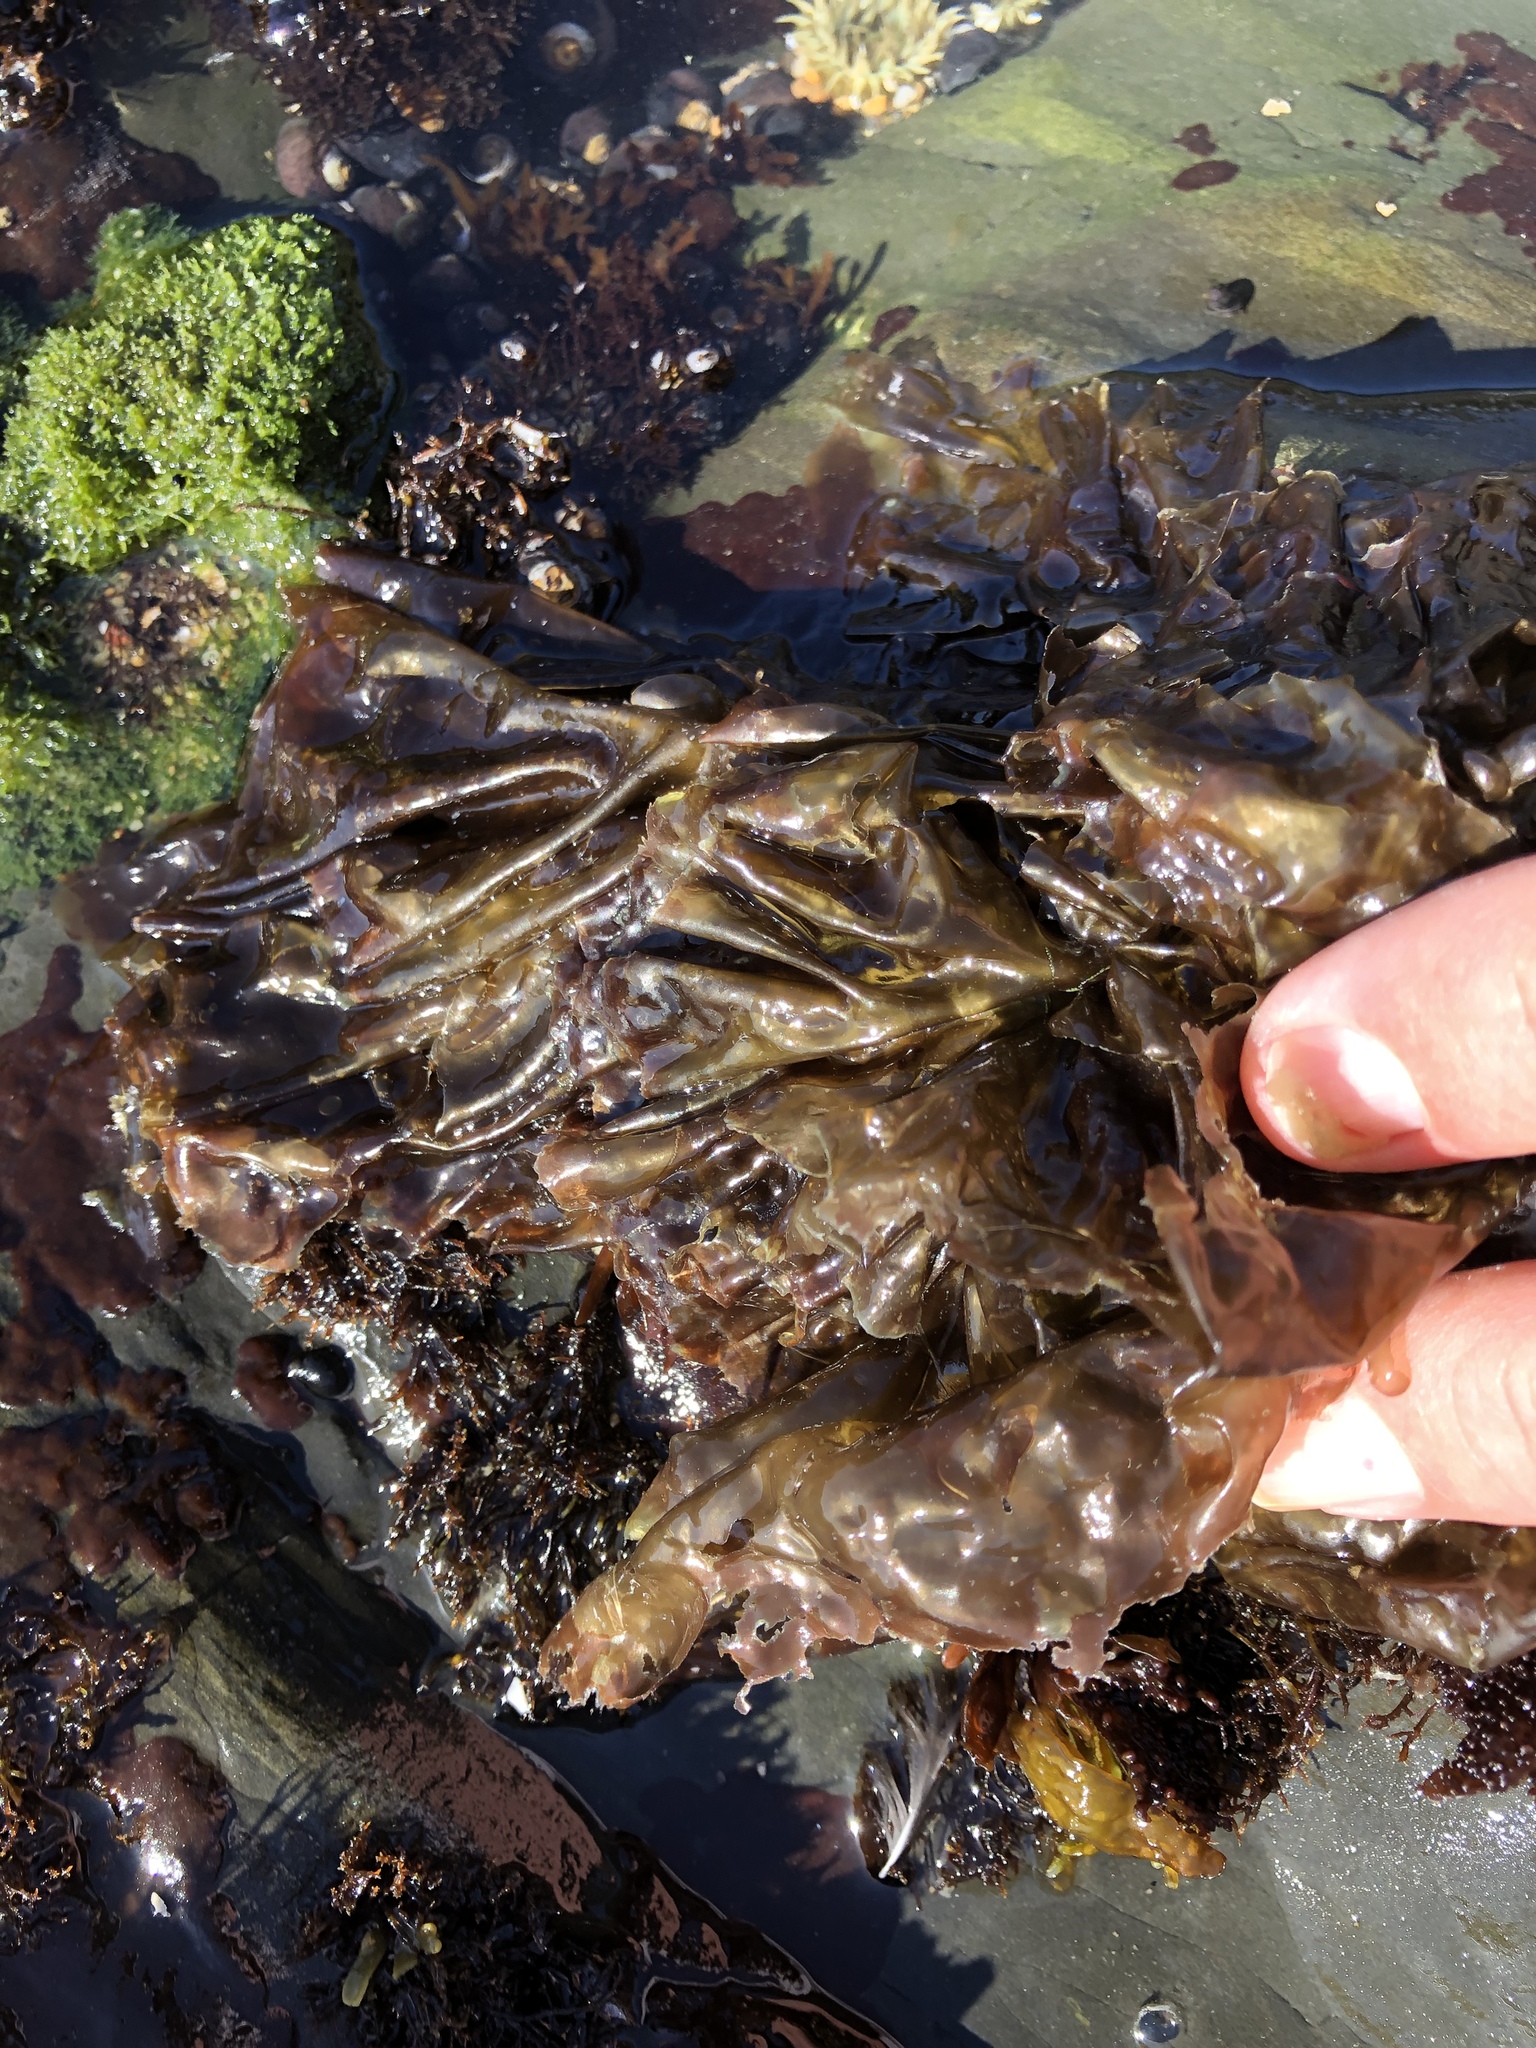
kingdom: Plantae
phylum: Rhodophyta
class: Bangiophyceae
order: Bangiales
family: Bangiaceae
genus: Neoporphyra
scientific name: Neoporphyra perforata
